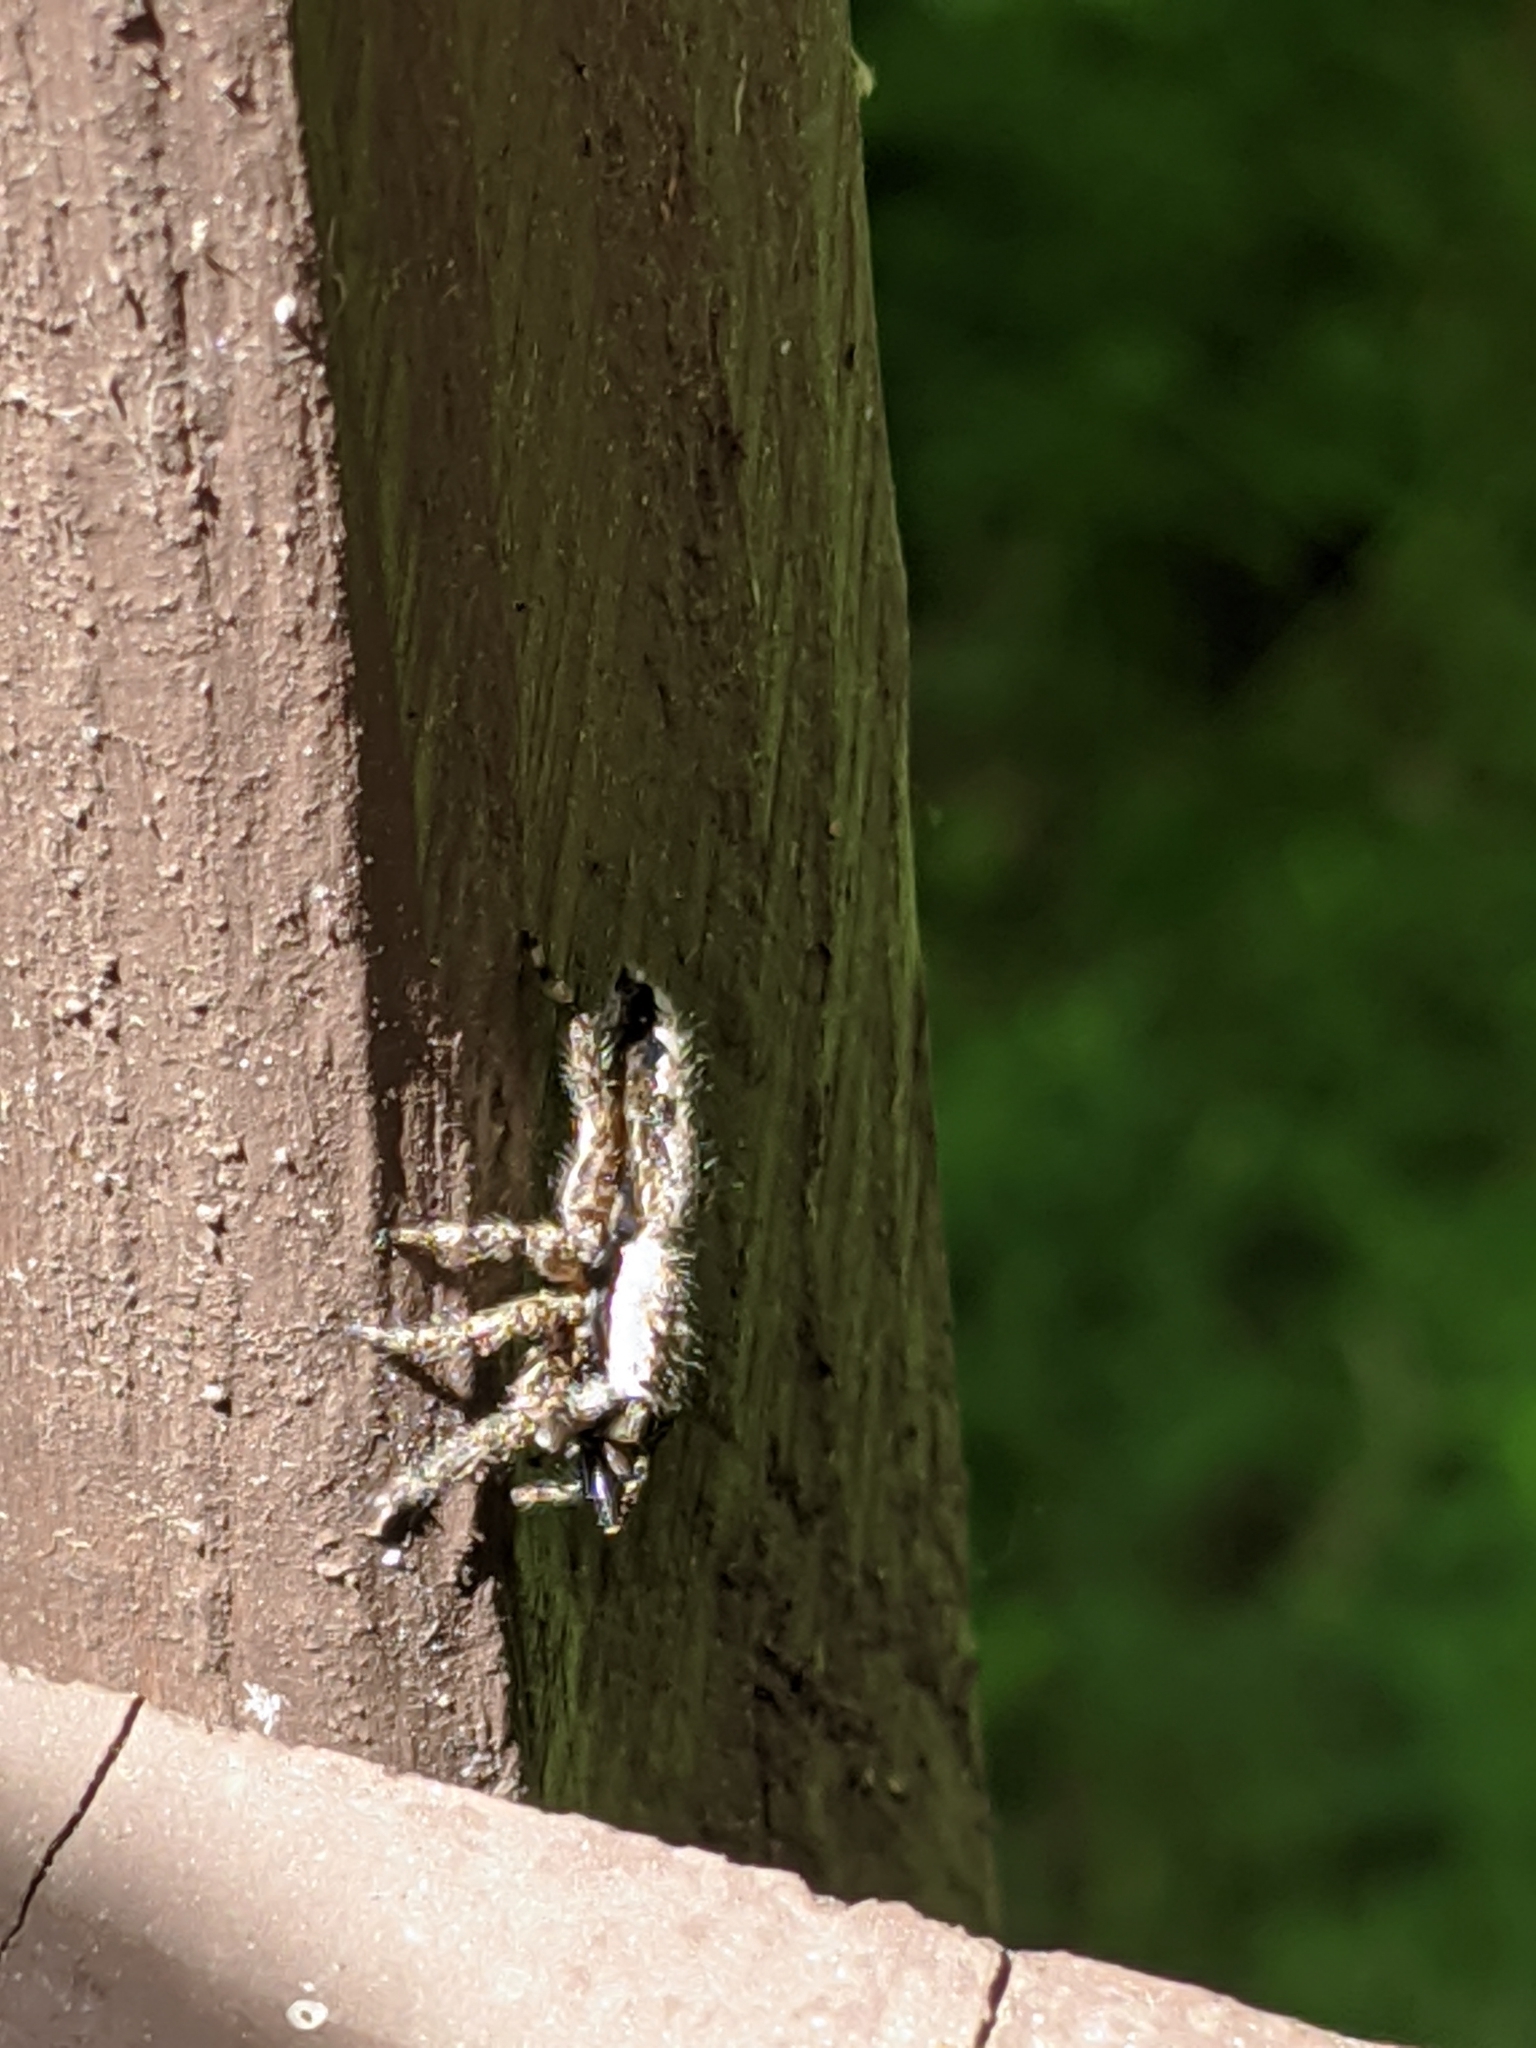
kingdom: Animalia
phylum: Arthropoda
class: Arachnida
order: Araneae
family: Salticidae
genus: Platycryptus
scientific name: Platycryptus undatus
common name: Tan jumping spider
